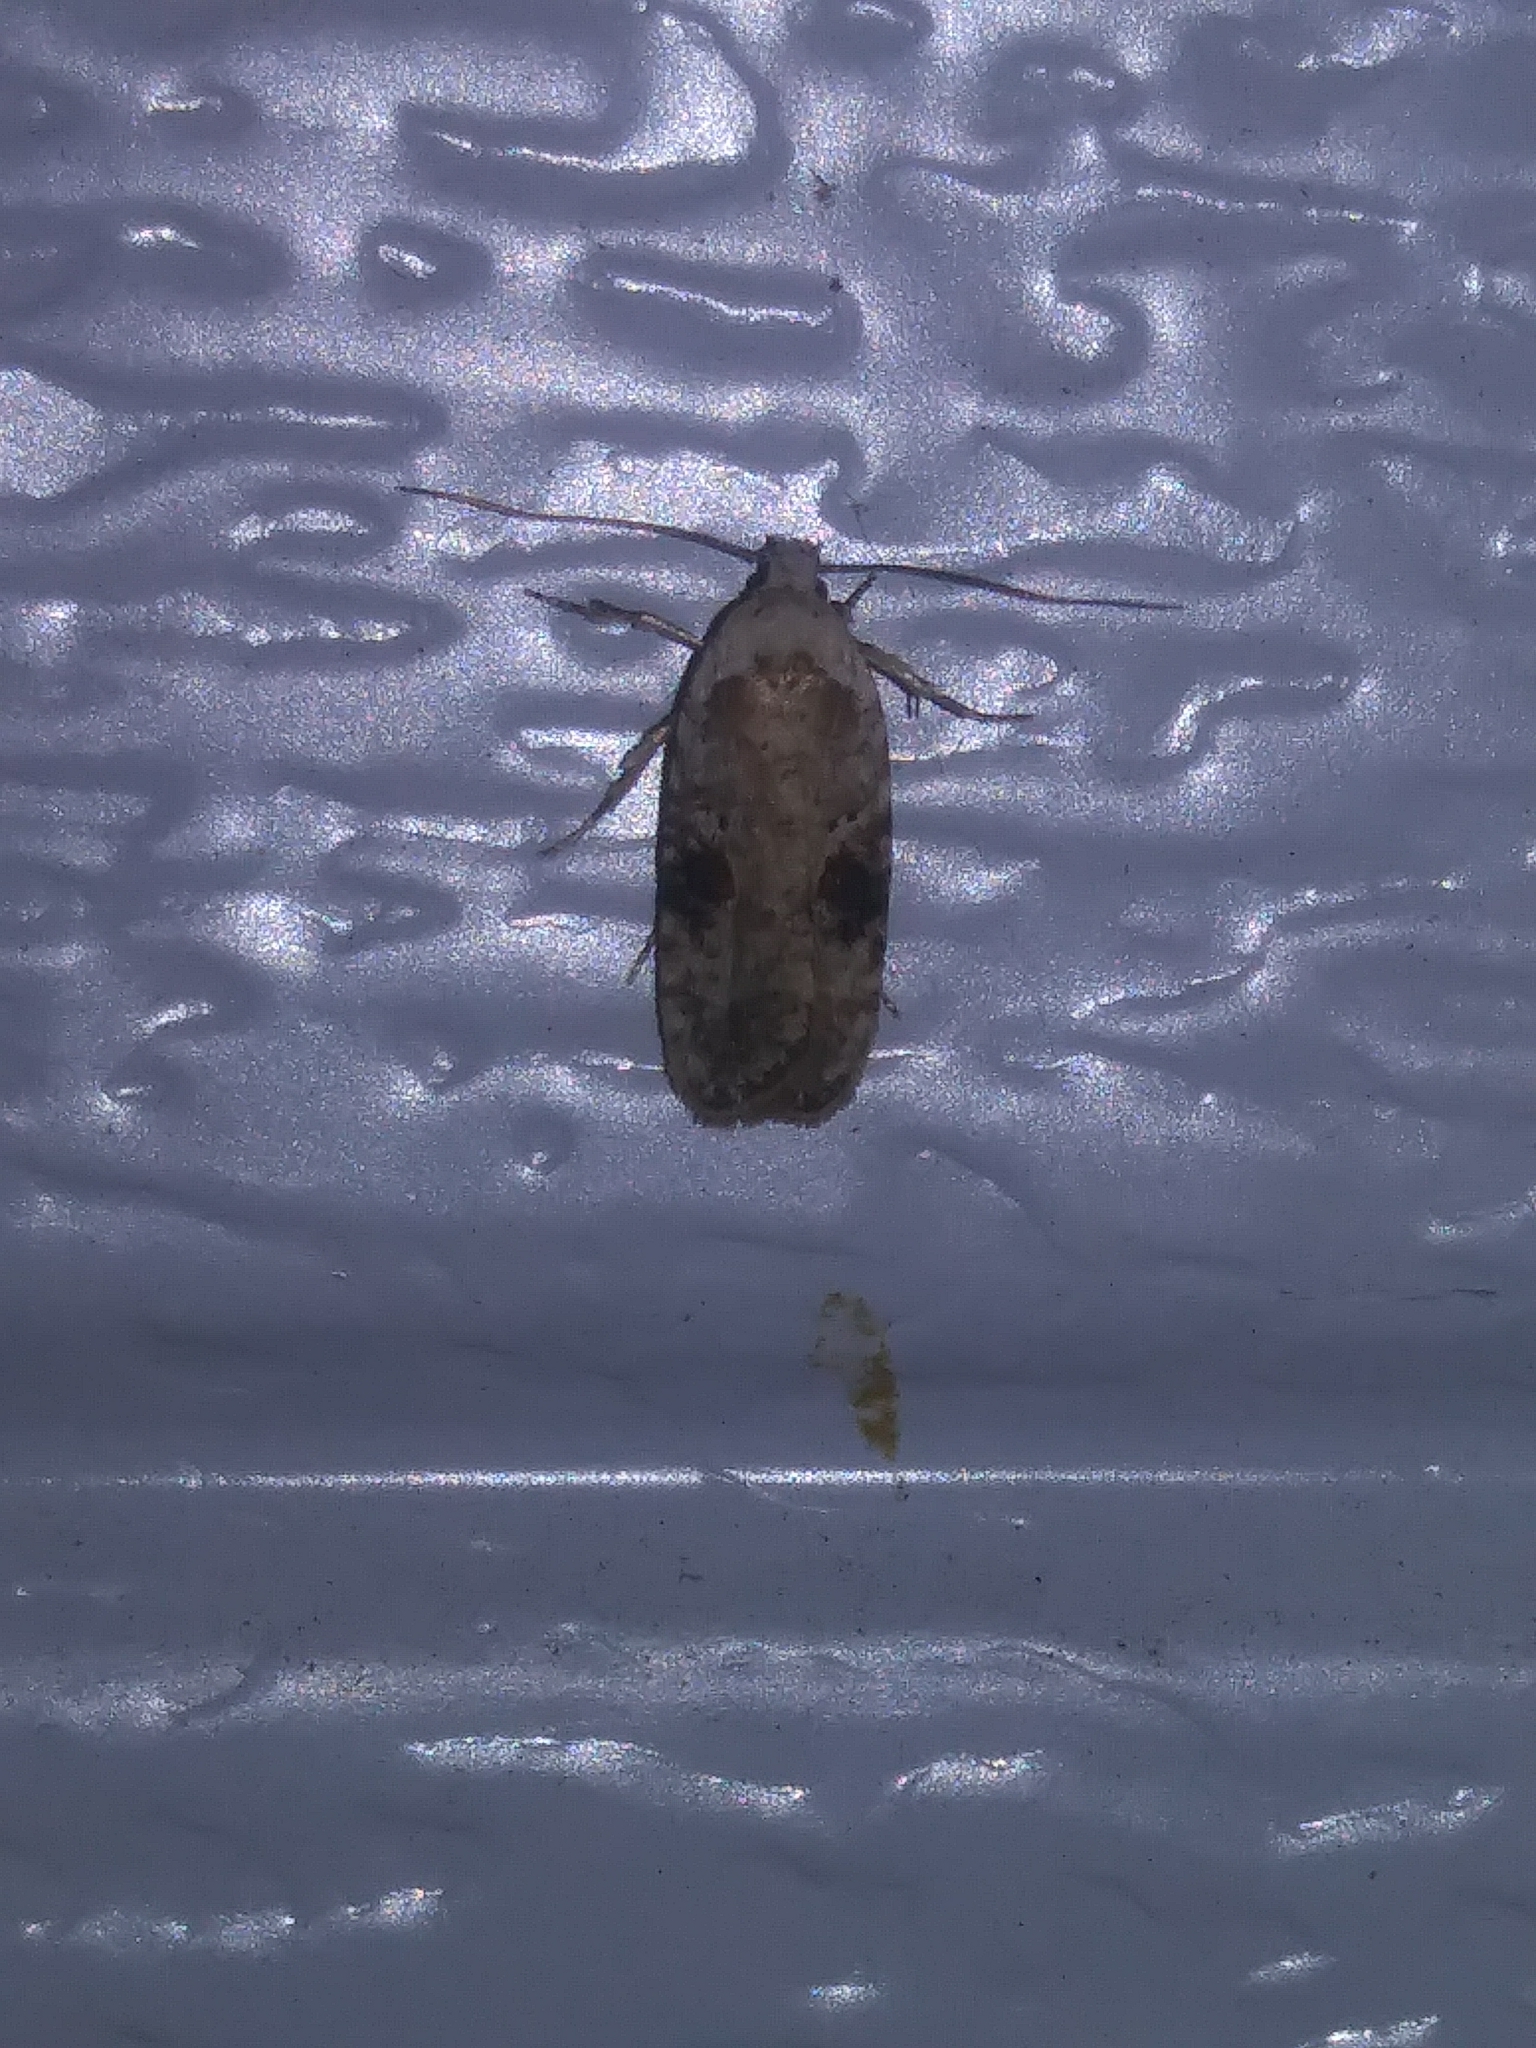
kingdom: Animalia
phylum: Arthropoda
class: Insecta
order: Lepidoptera
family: Depressariidae
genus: Agonopterix
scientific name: Agonopterix alstroemeriana
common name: Moth
